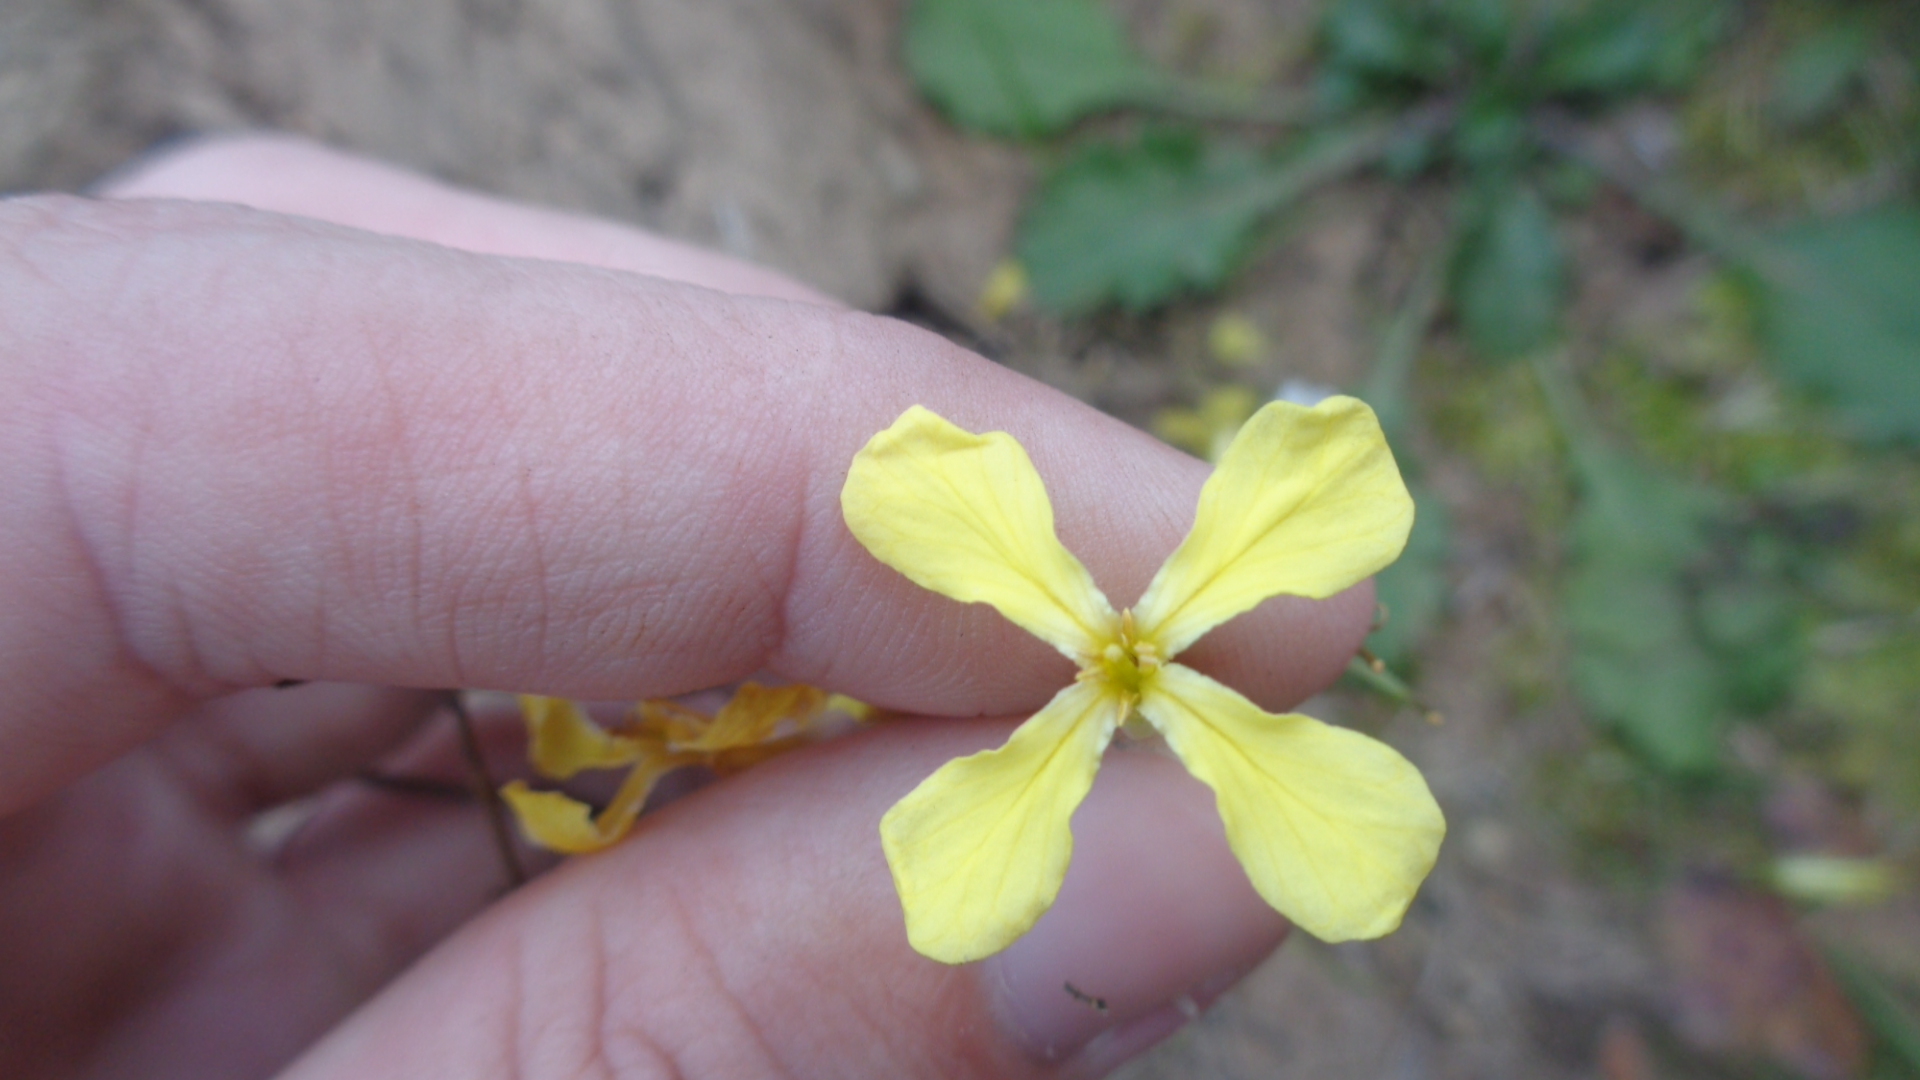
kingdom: Plantae
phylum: Tracheophyta
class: Magnoliopsida
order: Brassicales
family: Brassicaceae
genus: Raphanus
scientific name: Raphanus raphanistrum
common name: Wild radish
